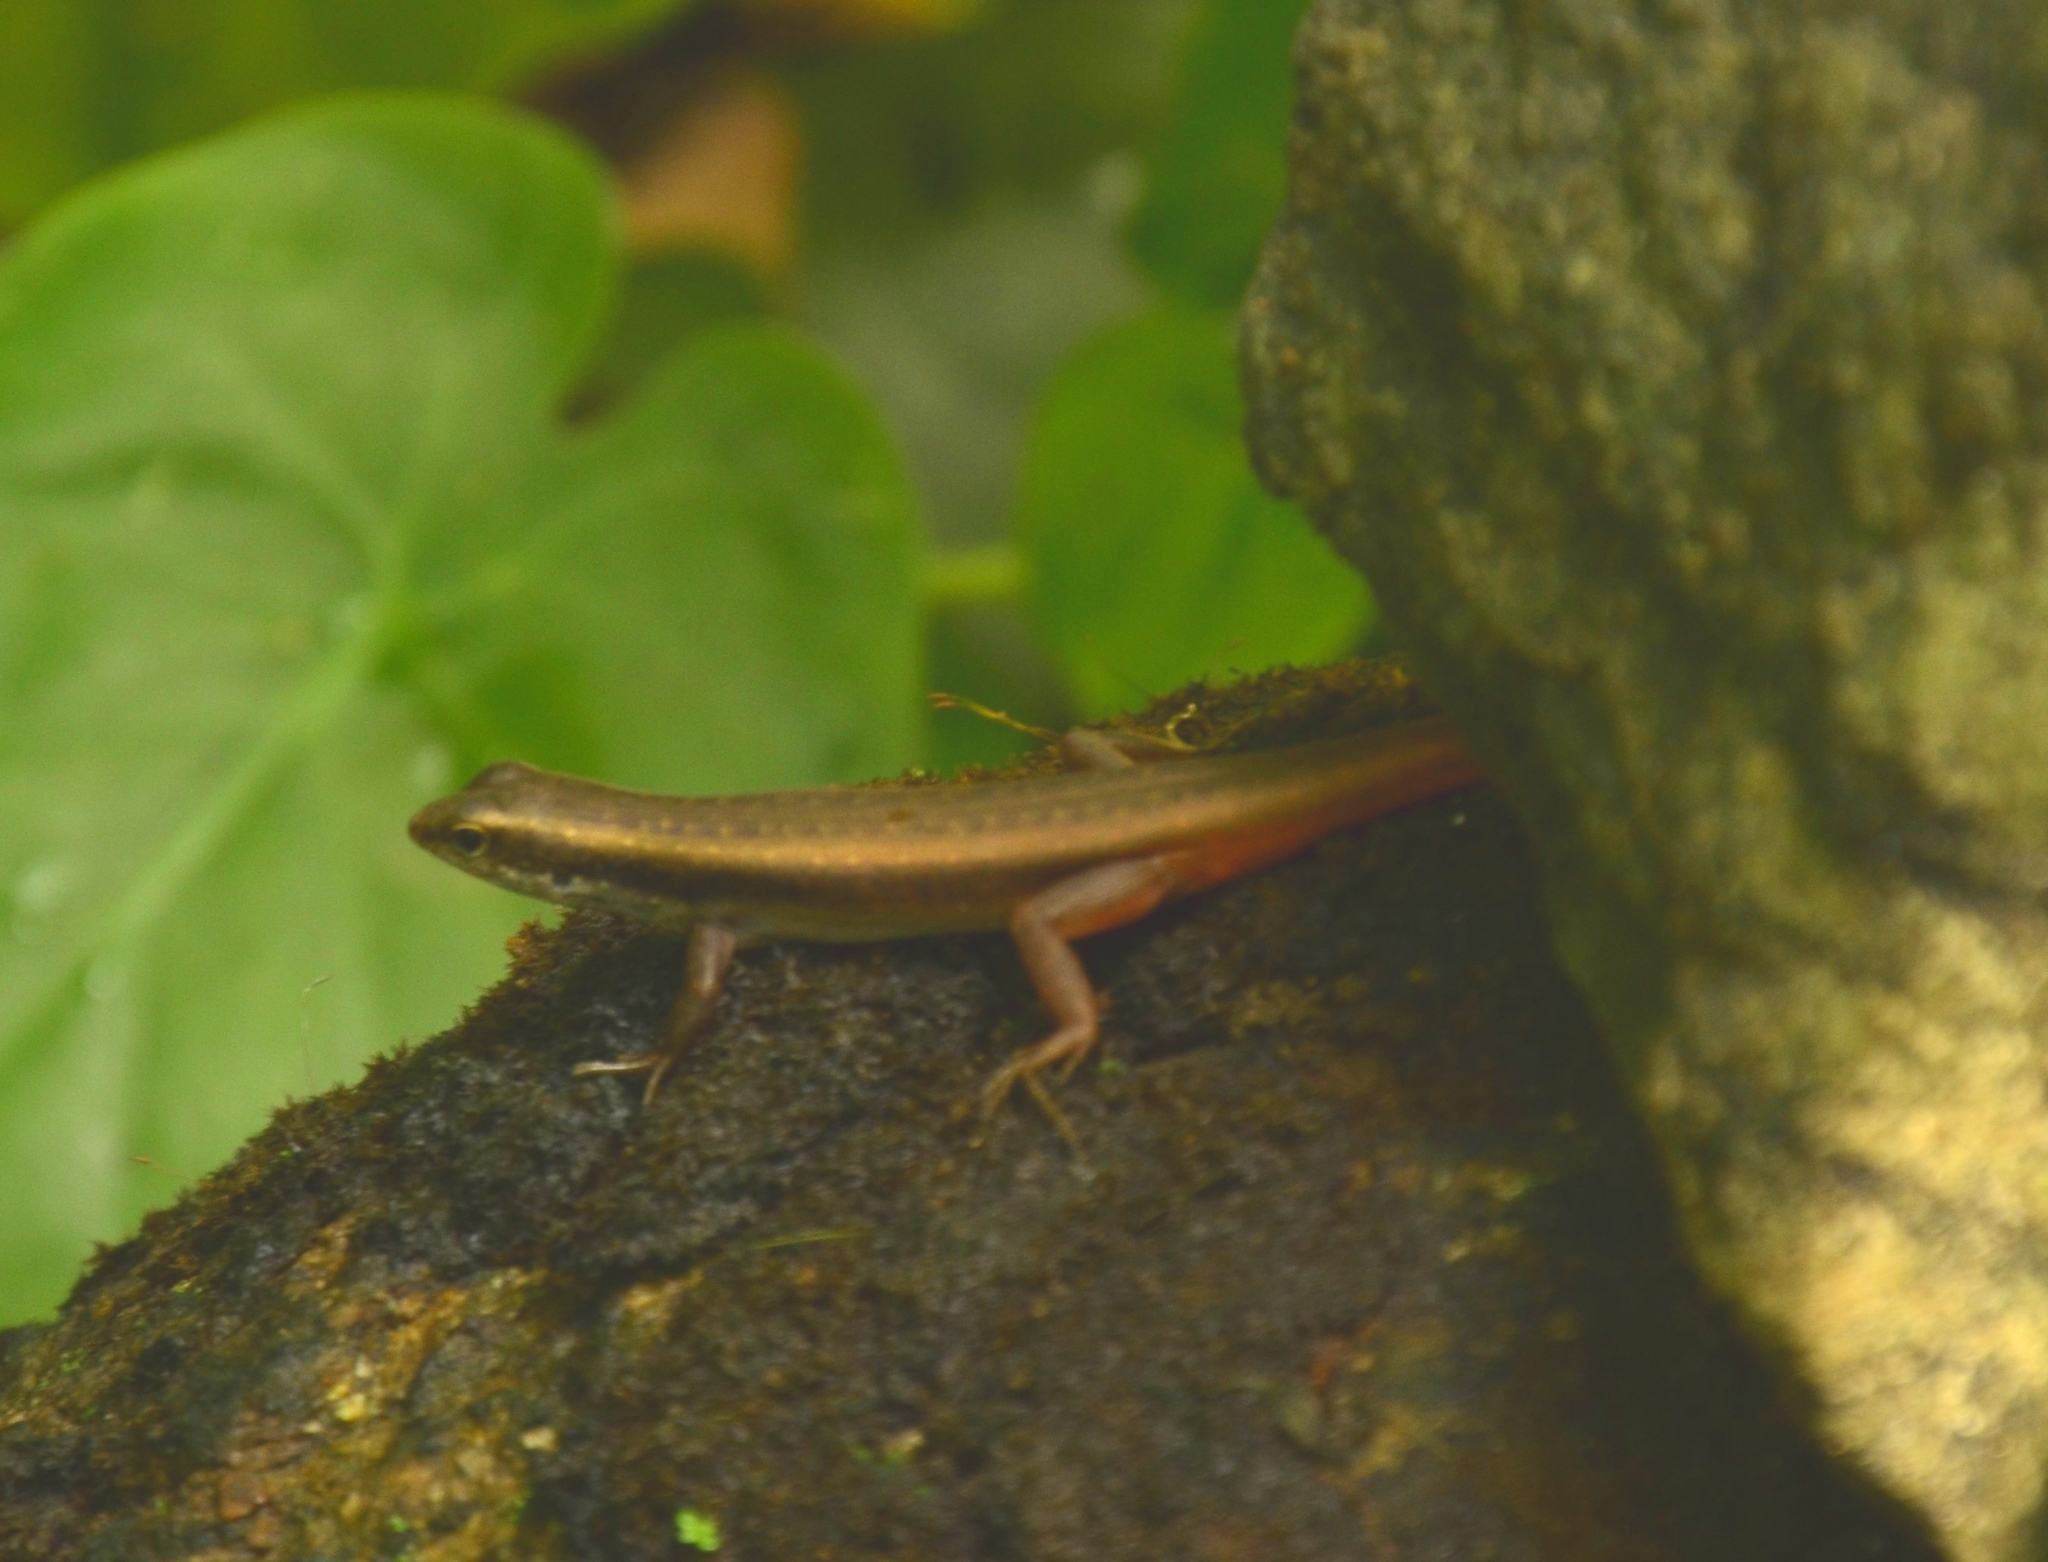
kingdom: Animalia
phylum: Chordata
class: Squamata
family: Scincidae
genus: Sphenomorphus
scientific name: Sphenomorphus dussumieri
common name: Dussumier's forest skink
